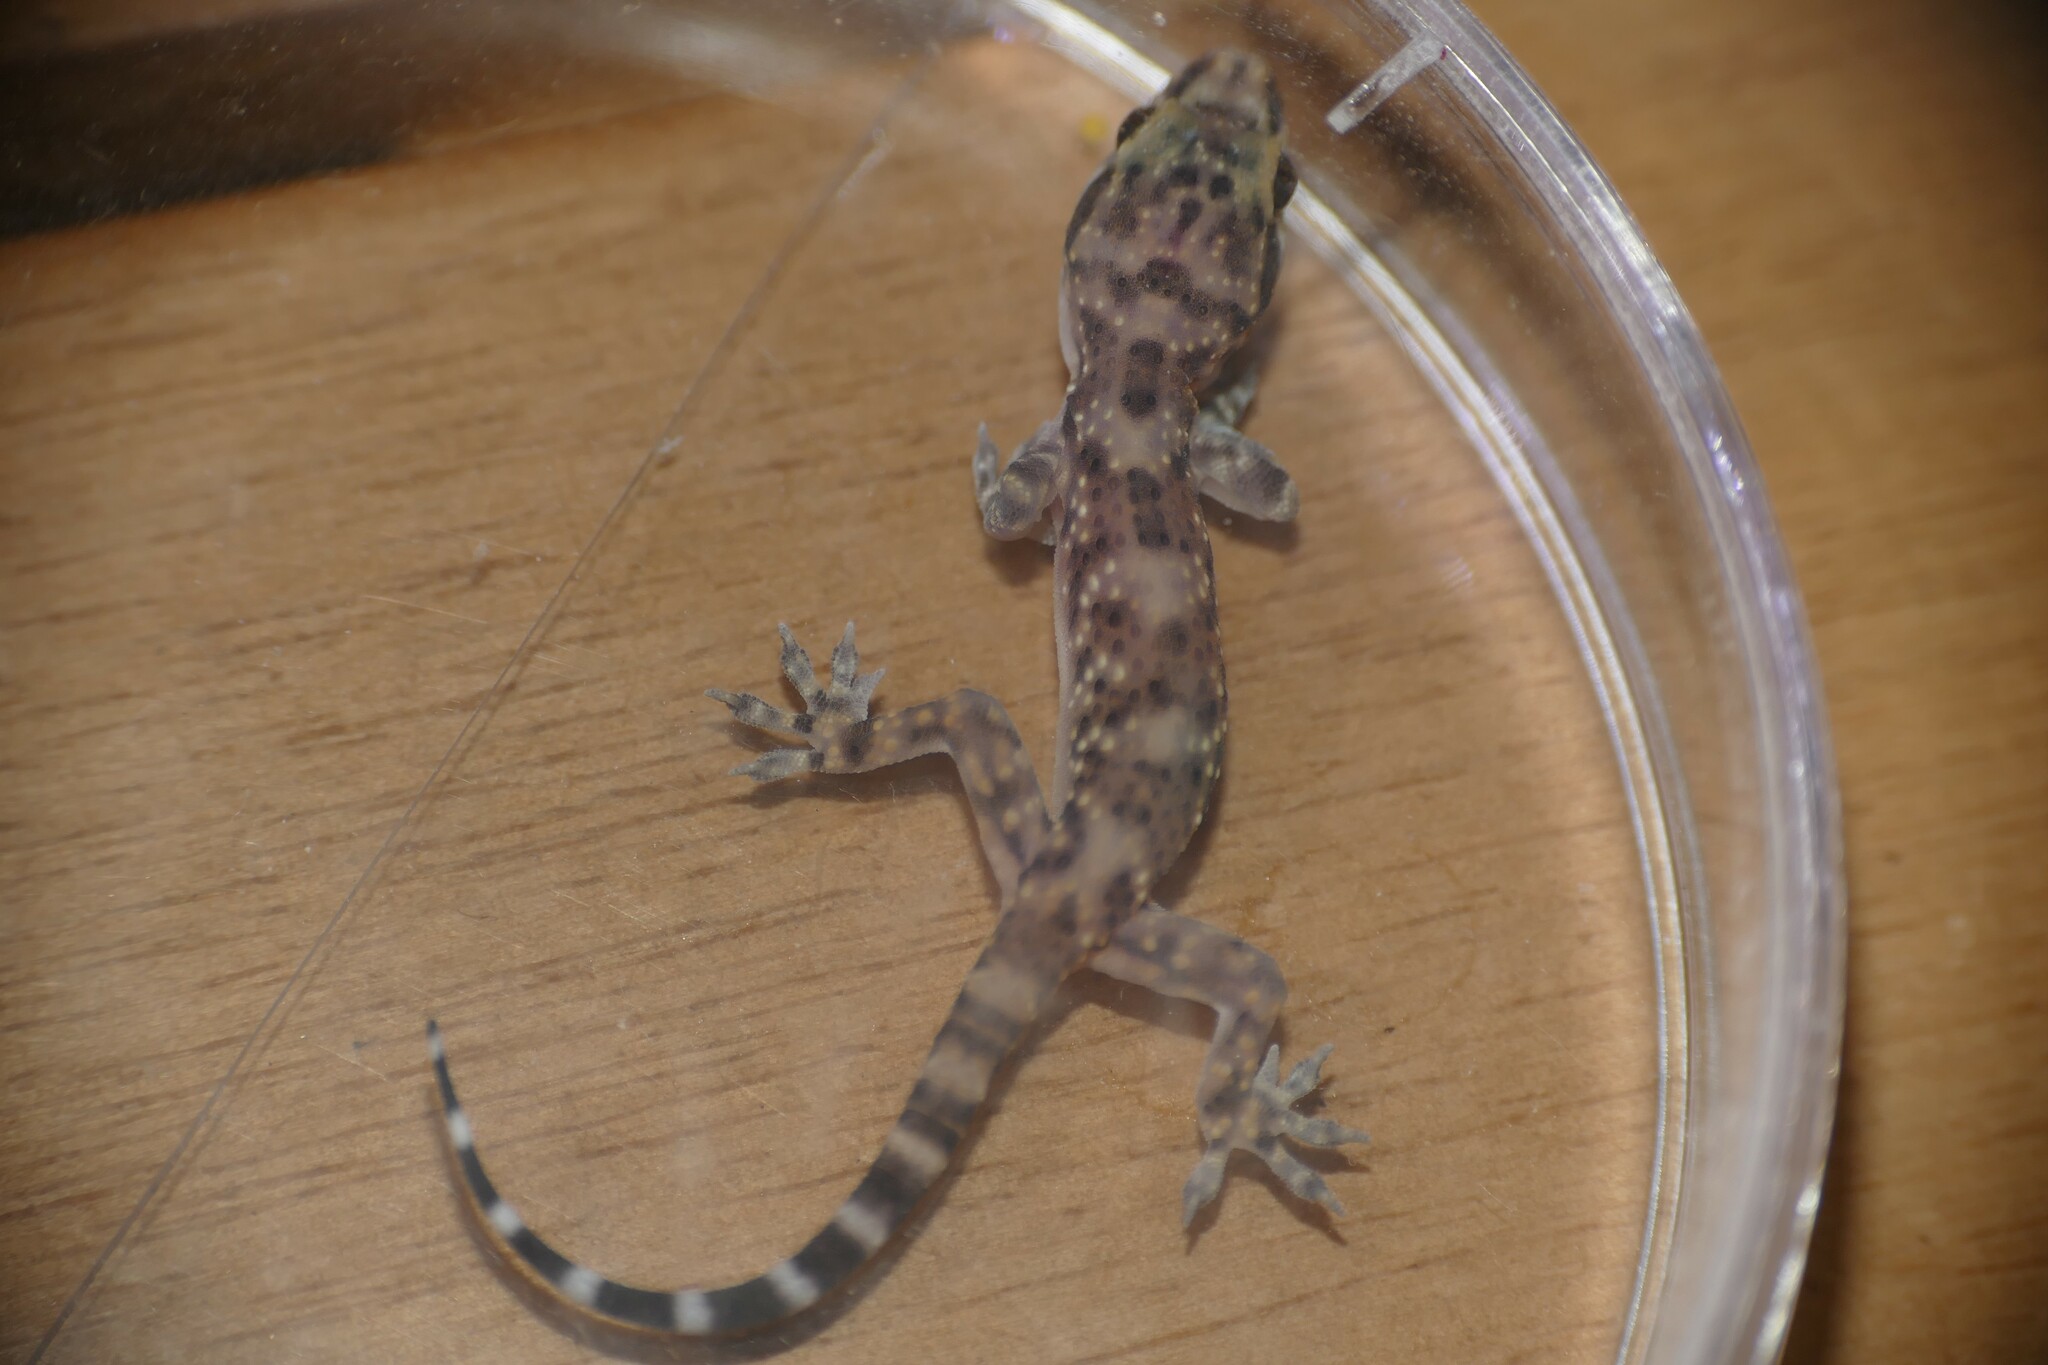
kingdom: Animalia
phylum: Chordata
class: Squamata
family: Gekkonidae
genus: Hemidactylus
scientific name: Hemidactylus turcicus
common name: Turkish gecko
